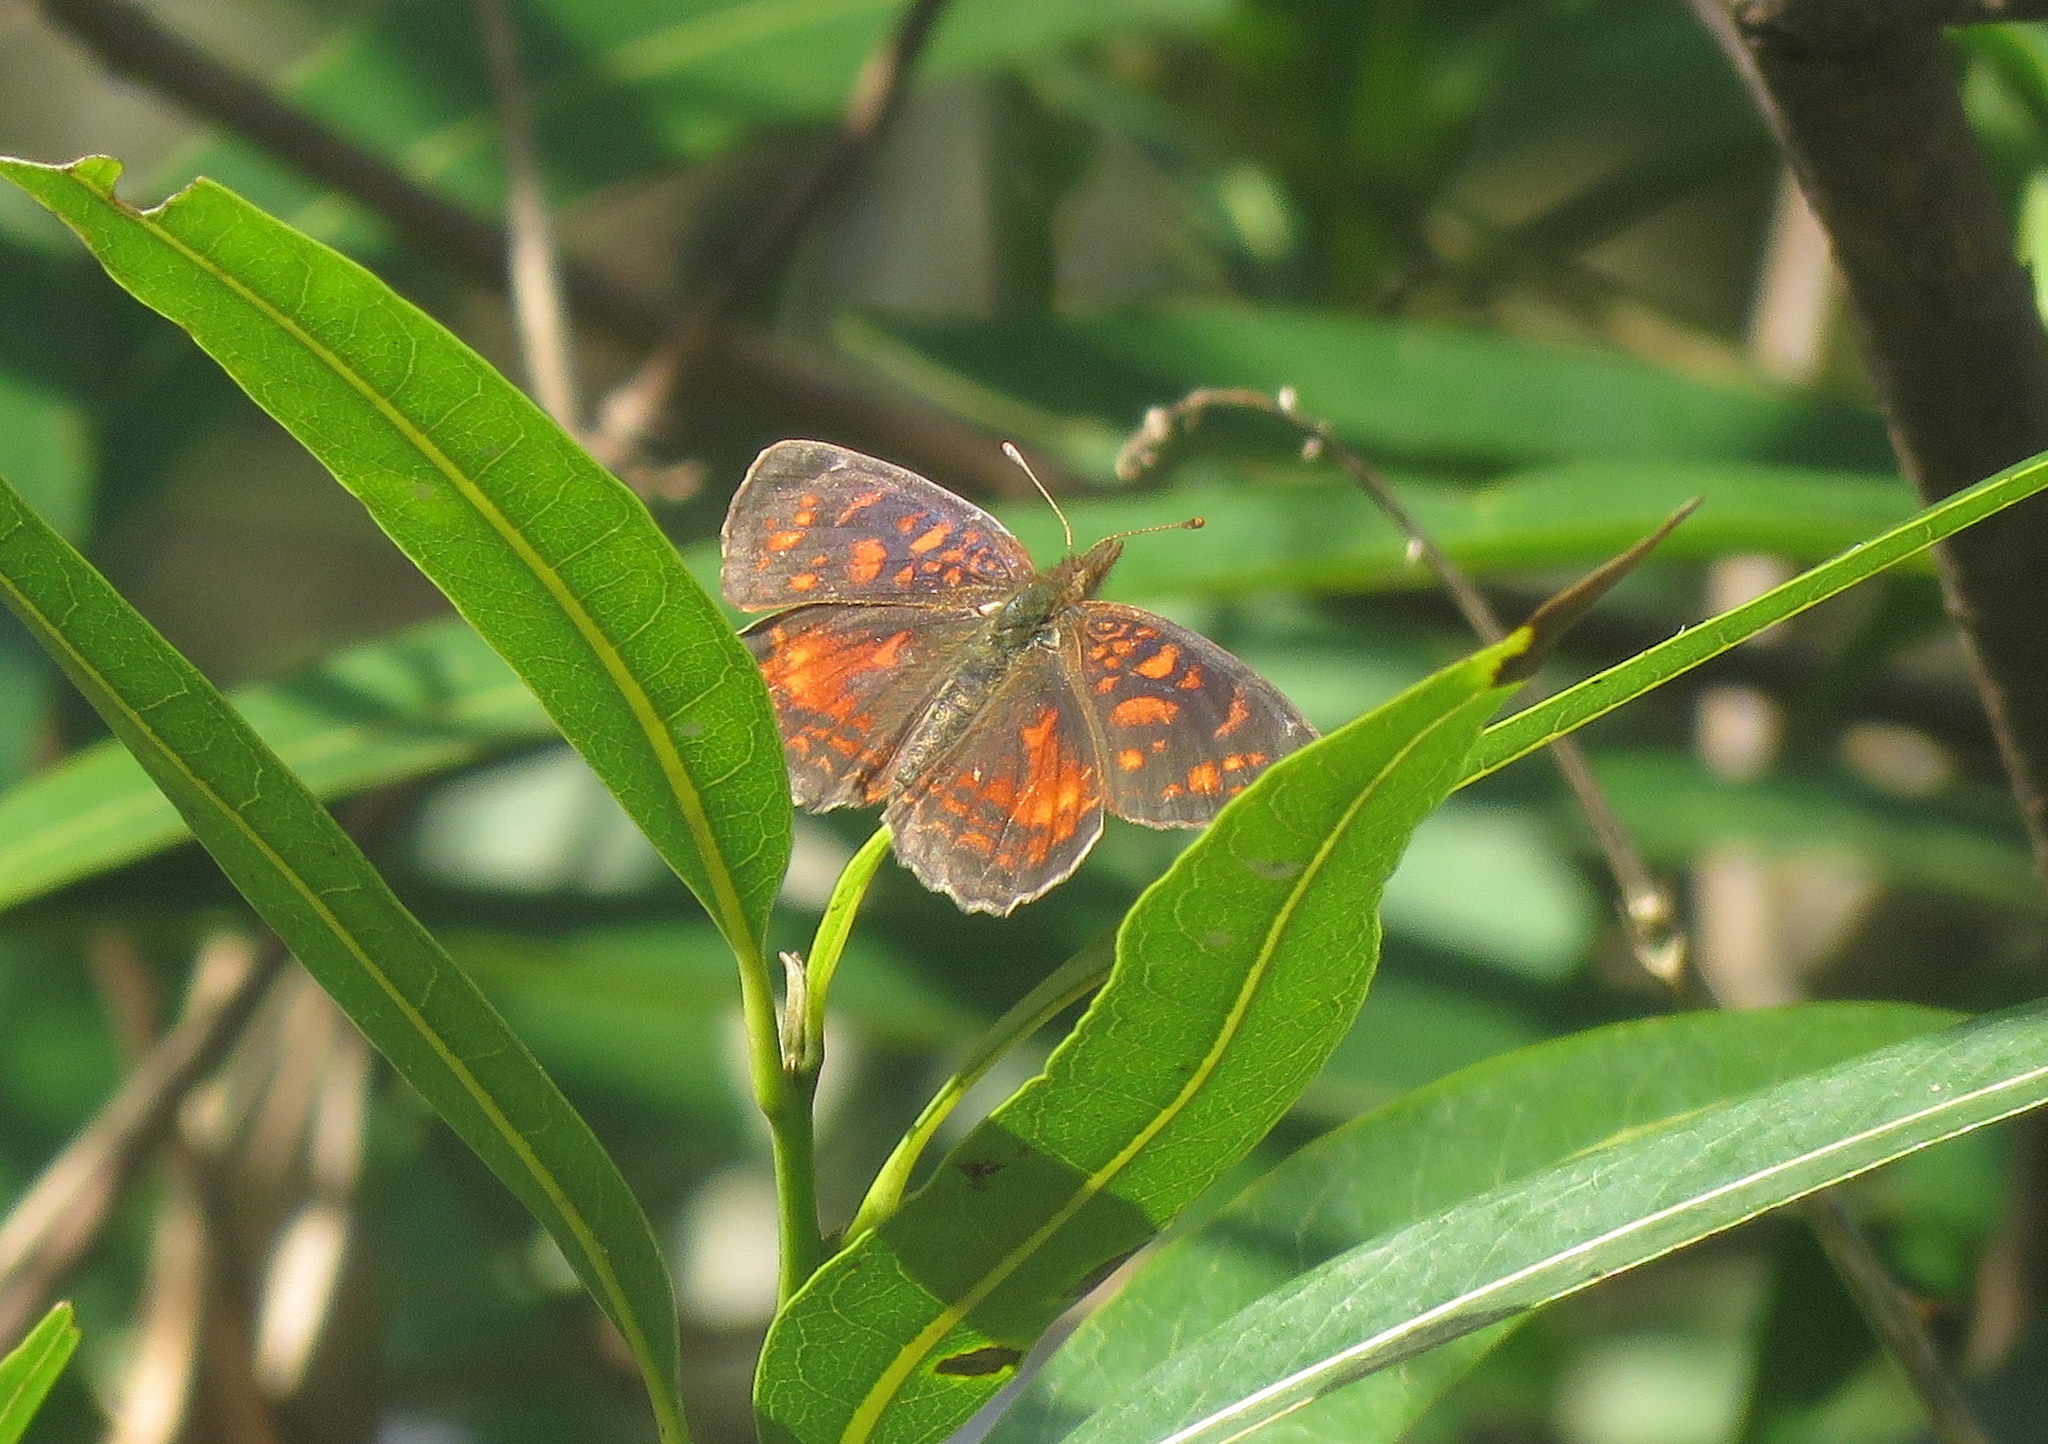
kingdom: Animalia
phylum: Arthropoda
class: Insecta
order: Lepidoptera
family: Nymphalidae
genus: Ortilia
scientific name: Ortilia velica
